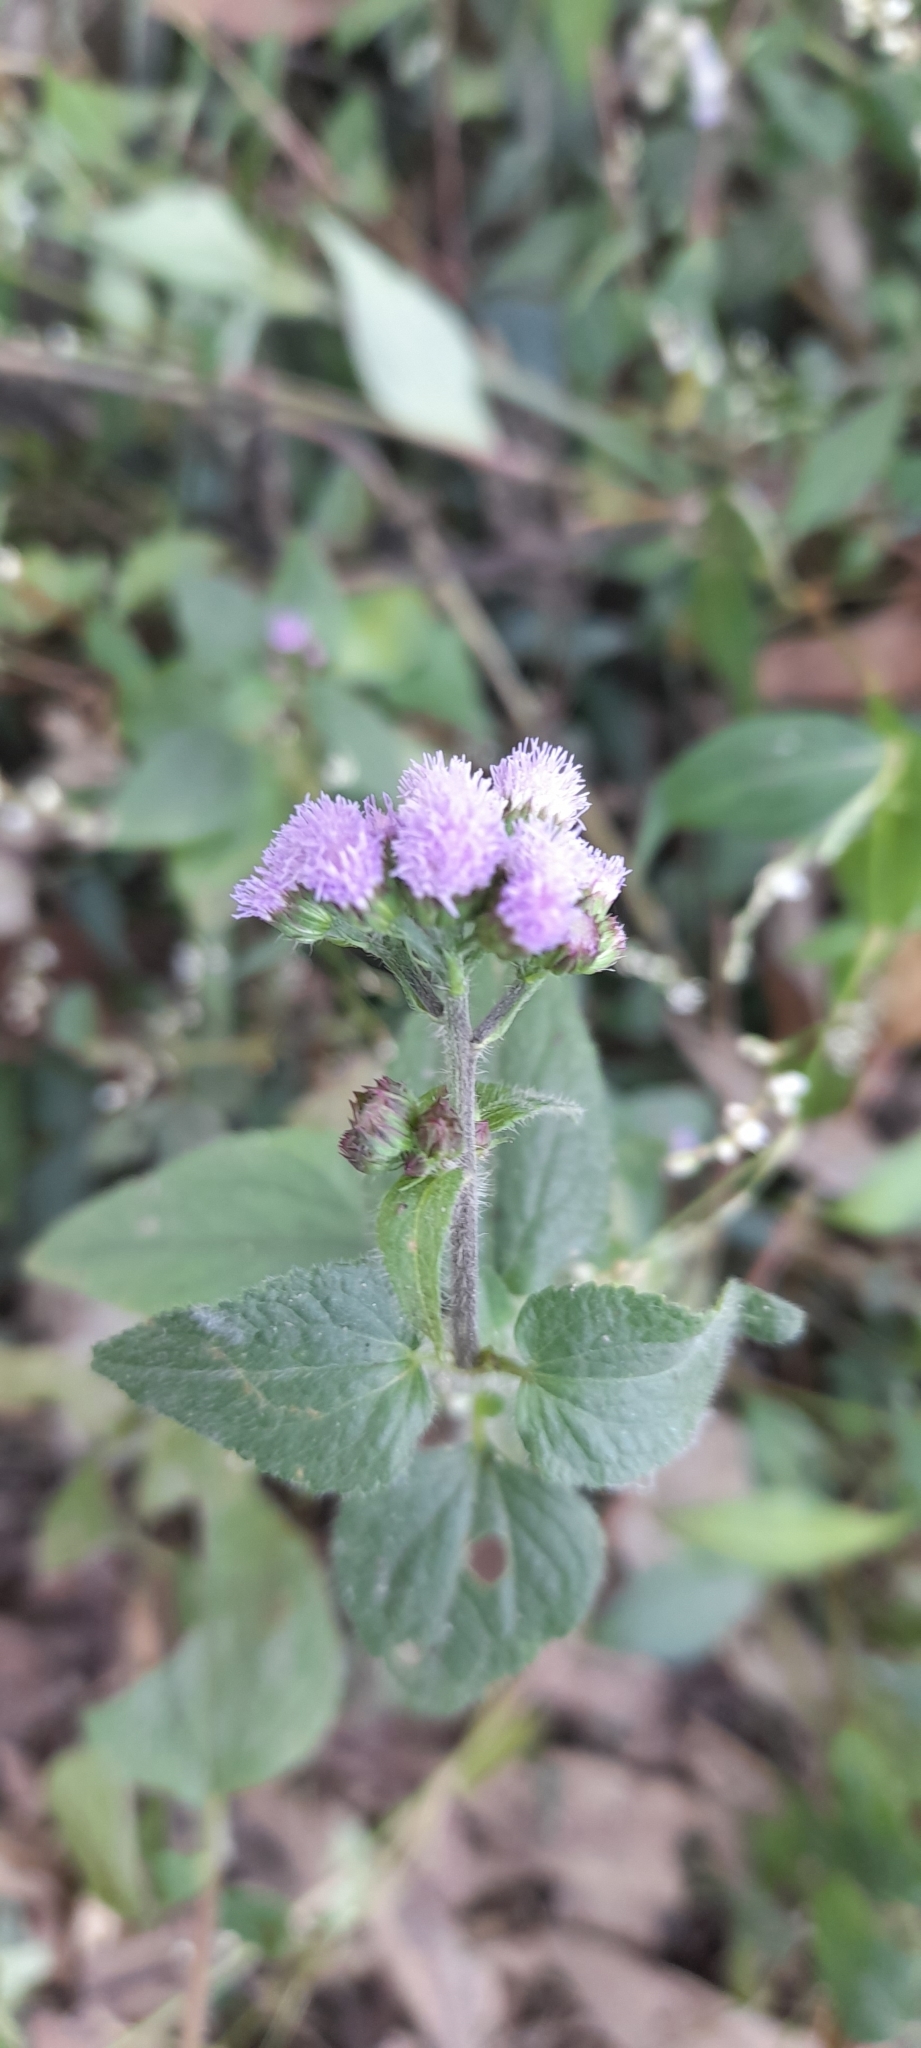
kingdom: Plantae
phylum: Tracheophyta
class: Magnoliopsida
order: Asterales
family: Asteraceae
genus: Chromolaena
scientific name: Chromolaena odorata
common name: Siamweed
